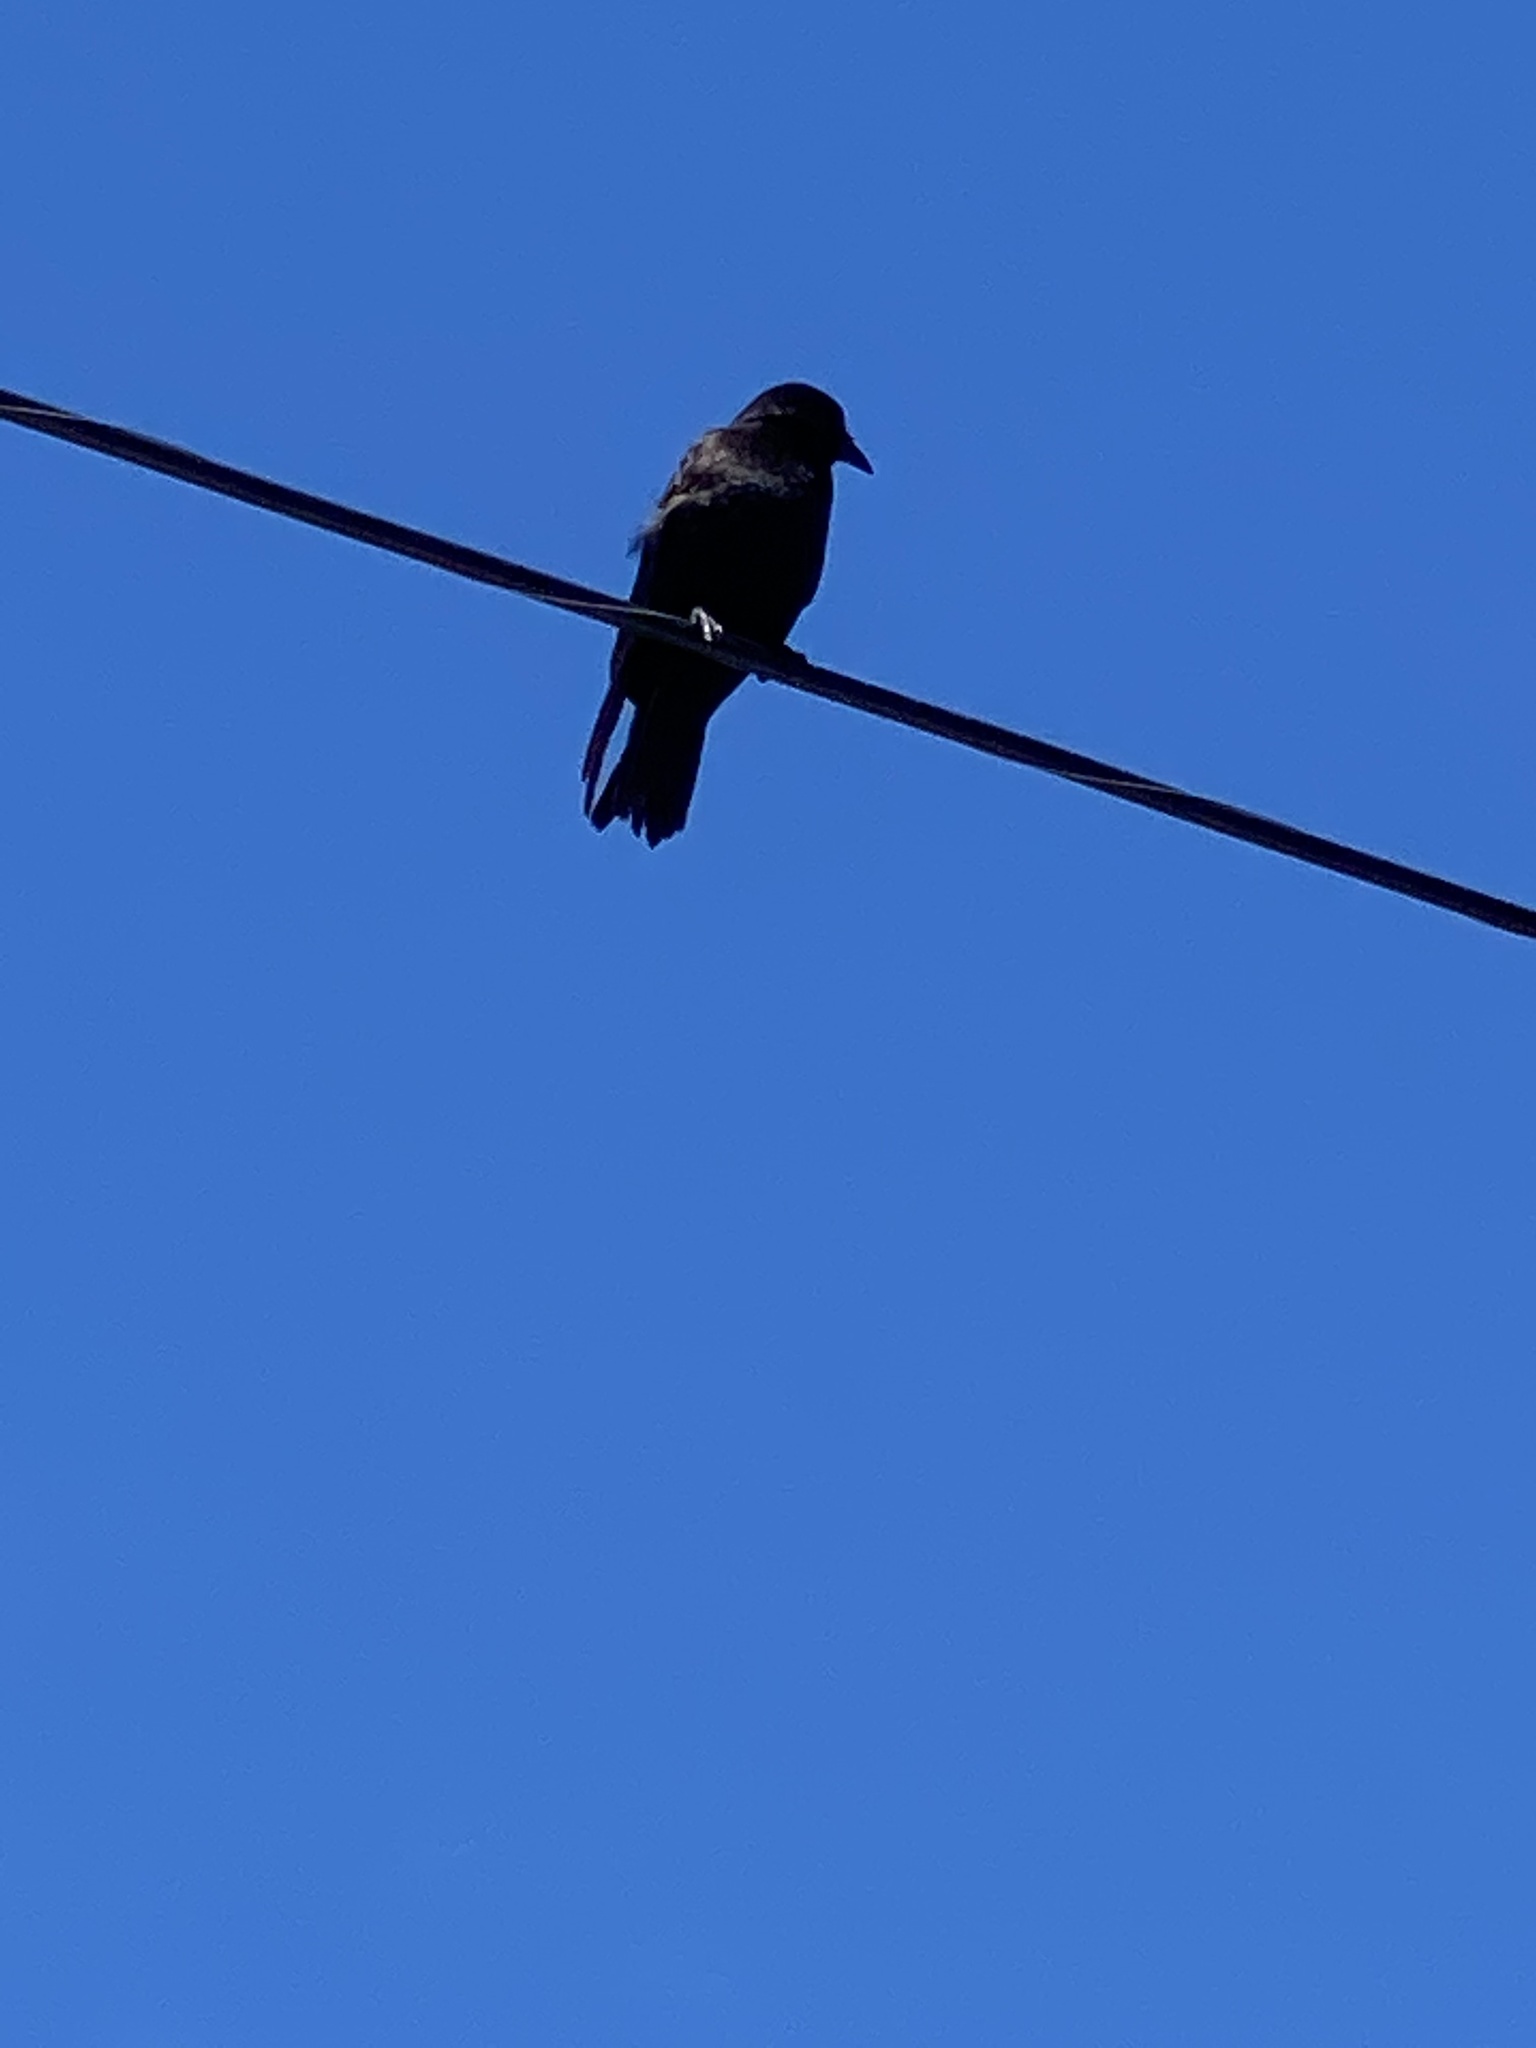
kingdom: Animalia
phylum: Chordata
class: Aves
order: Passeriformes
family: Corvidae
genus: Corvus
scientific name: Corvus brachyrhynchos
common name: American crow
